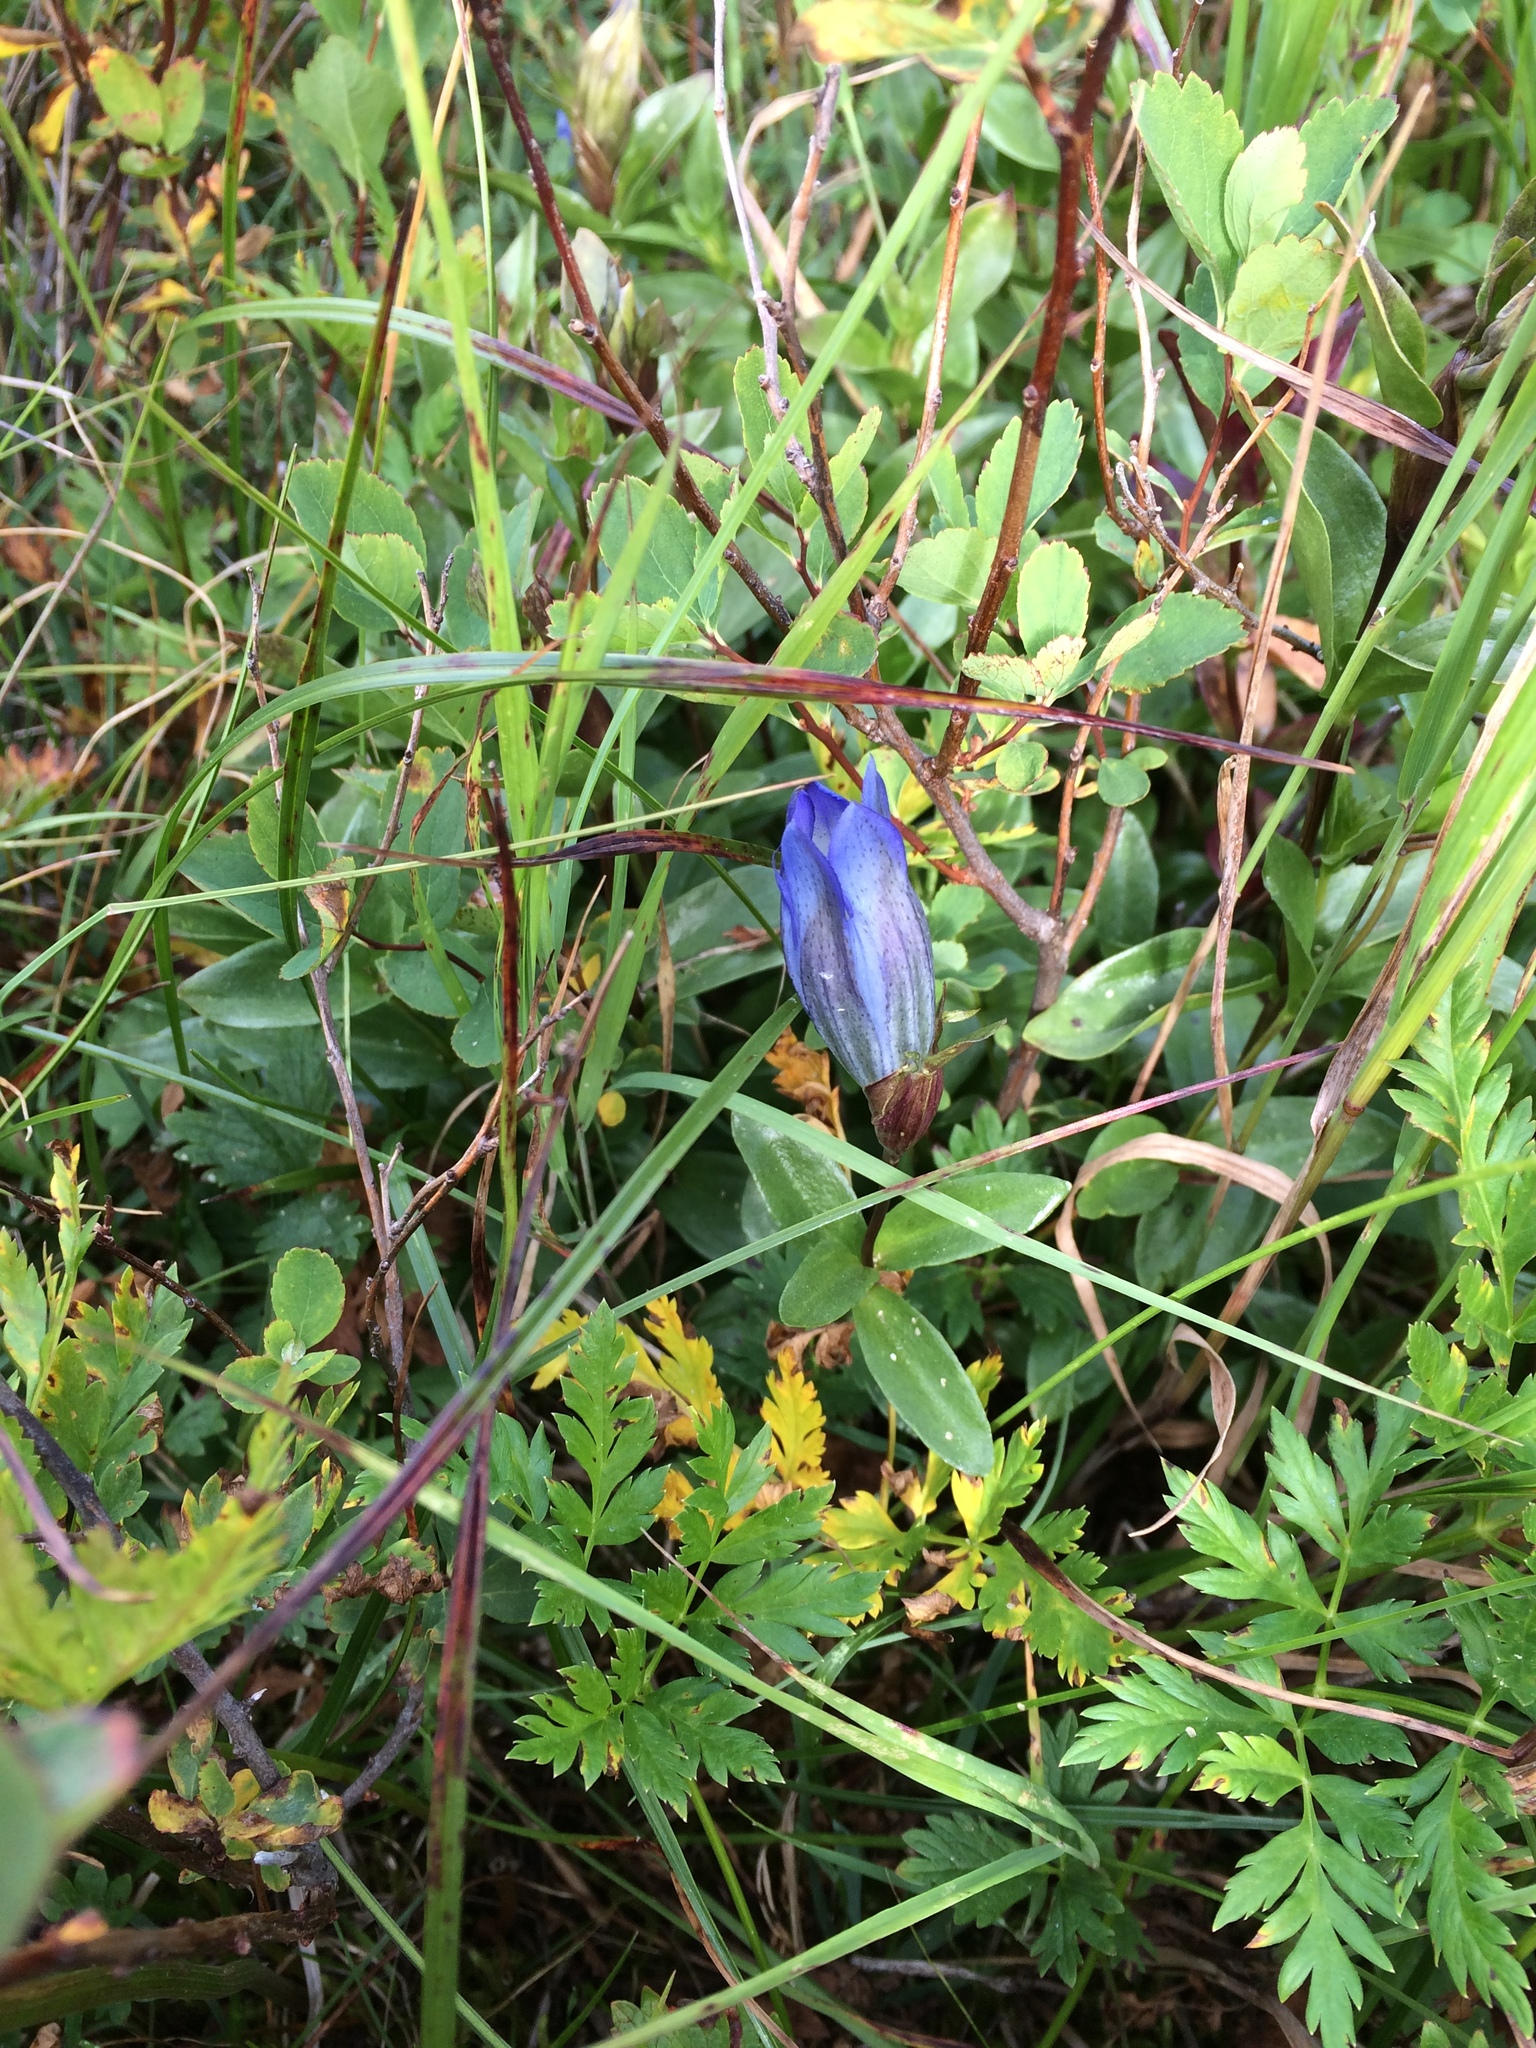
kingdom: Plantae
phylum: Tracheophyta
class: Magnoliopsida
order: Gentianales
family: Gentianaceae
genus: Gentiana
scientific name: Gentiana calycosa
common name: Rainier pleated gentian
